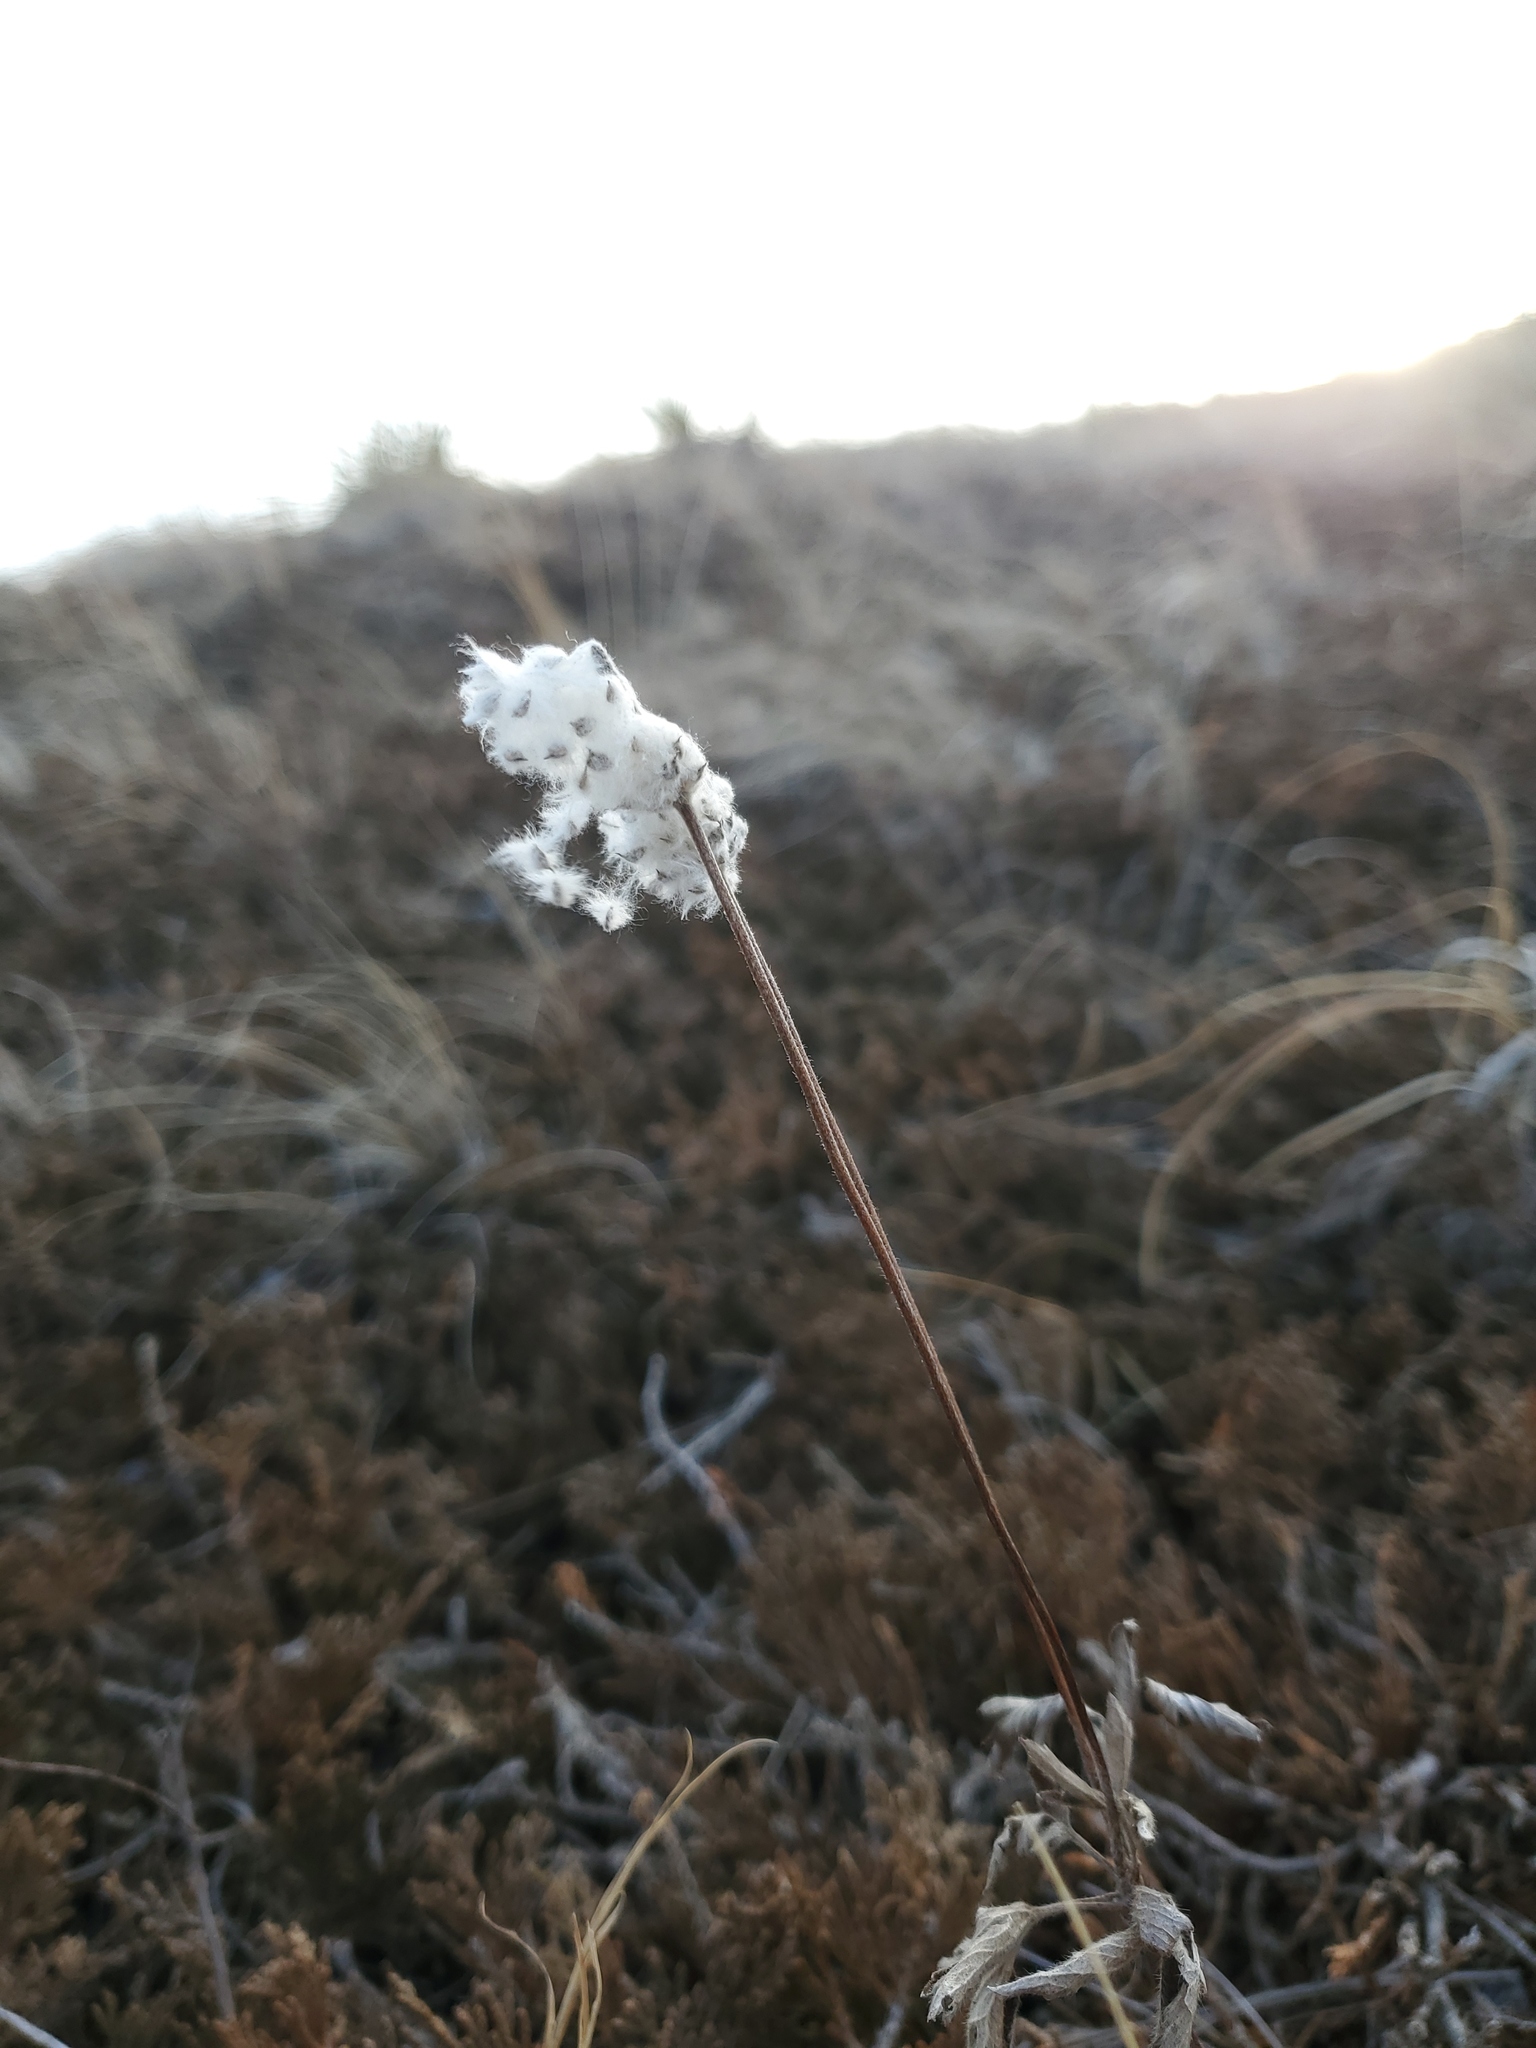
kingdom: Plantae
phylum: Tracheophyta
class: Magnoliopsida
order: Ranunculales
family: Ranunculaceae
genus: Anemone
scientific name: Anemone cylindrica
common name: Candle anemone
